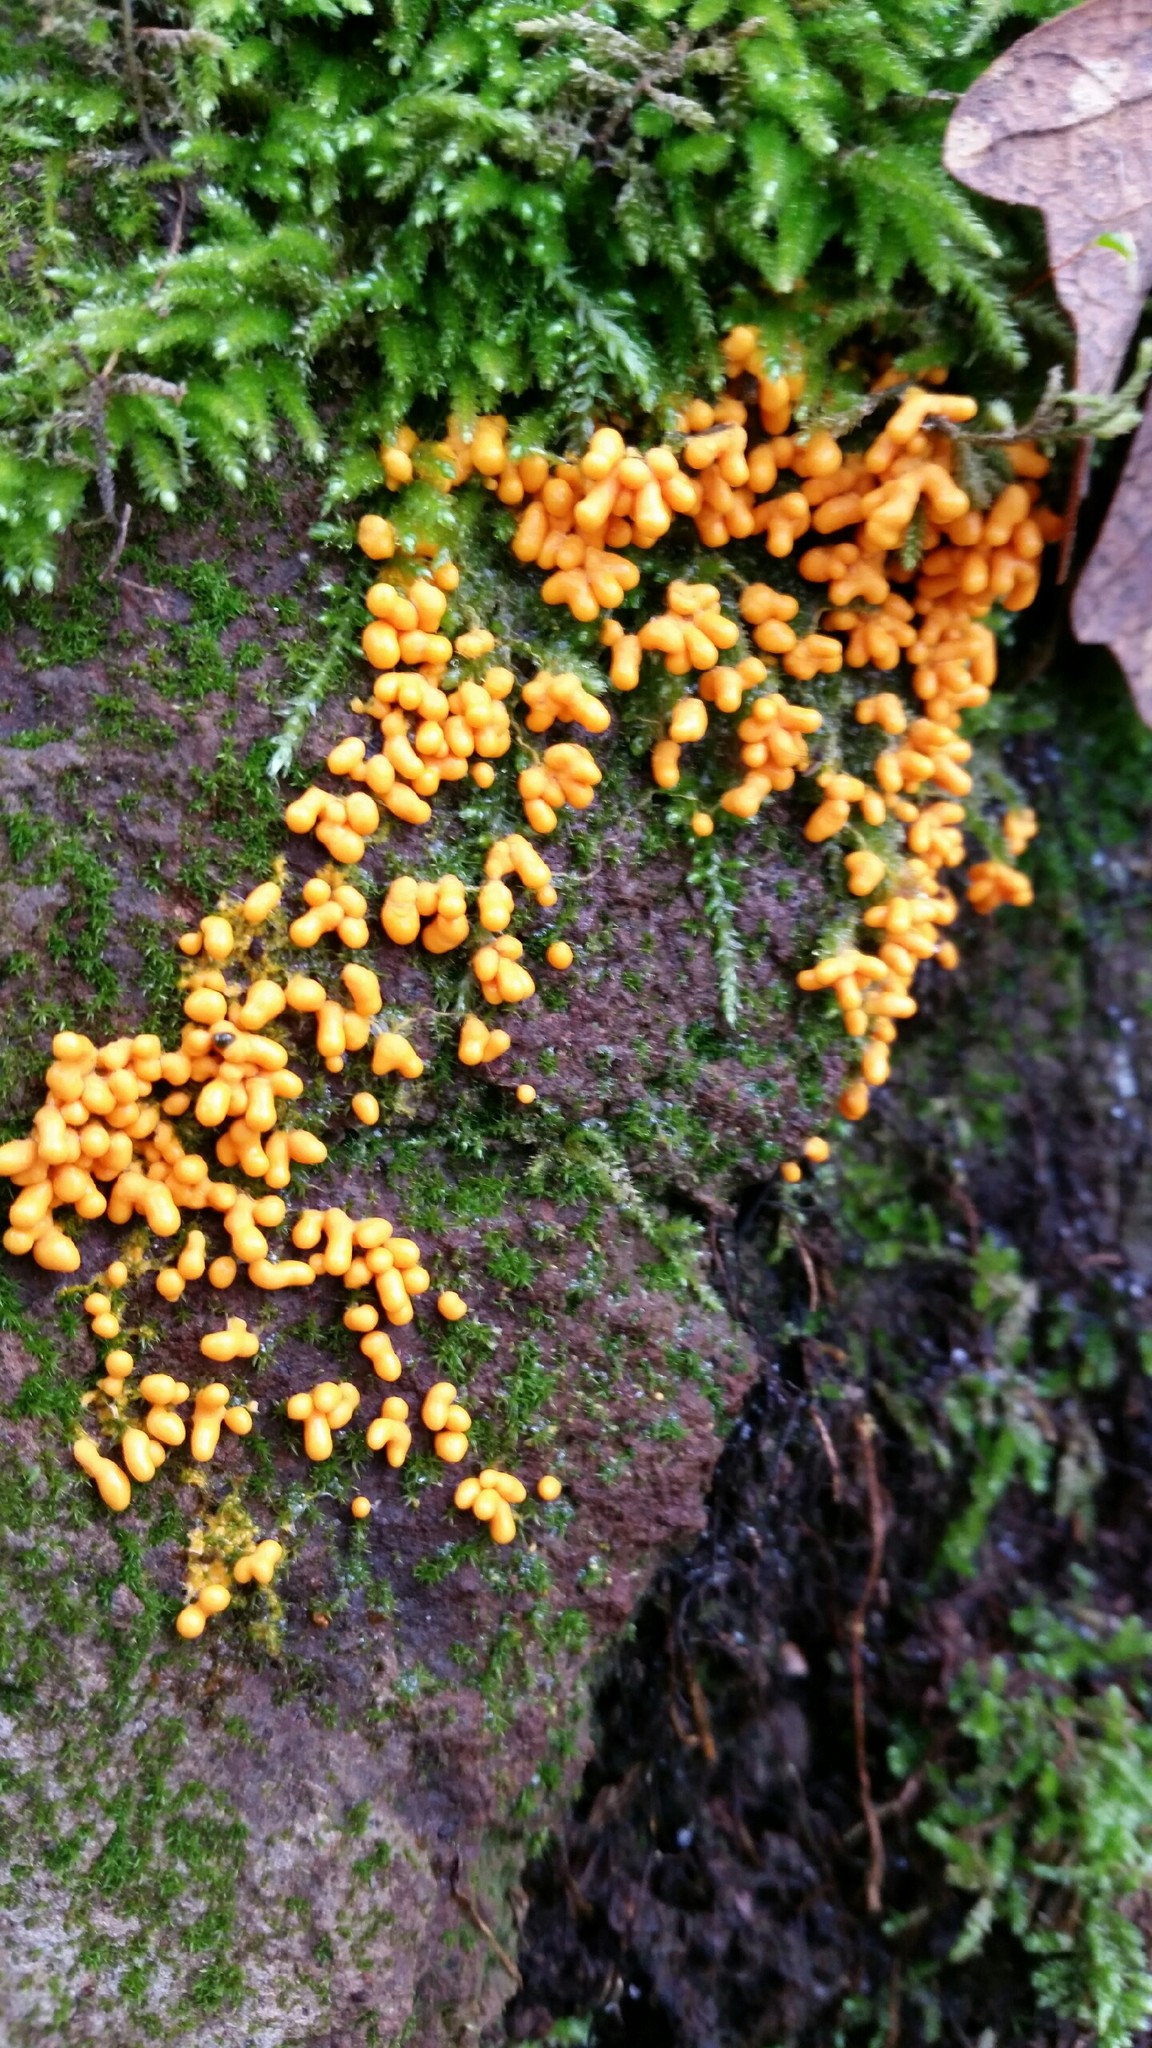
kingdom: Protozoa
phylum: Mycetozoa
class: Myxomycetes
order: Physarales
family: Physaraceae
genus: Leocarpus
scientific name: Leocarpus fragilis
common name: Insect-egg slime
